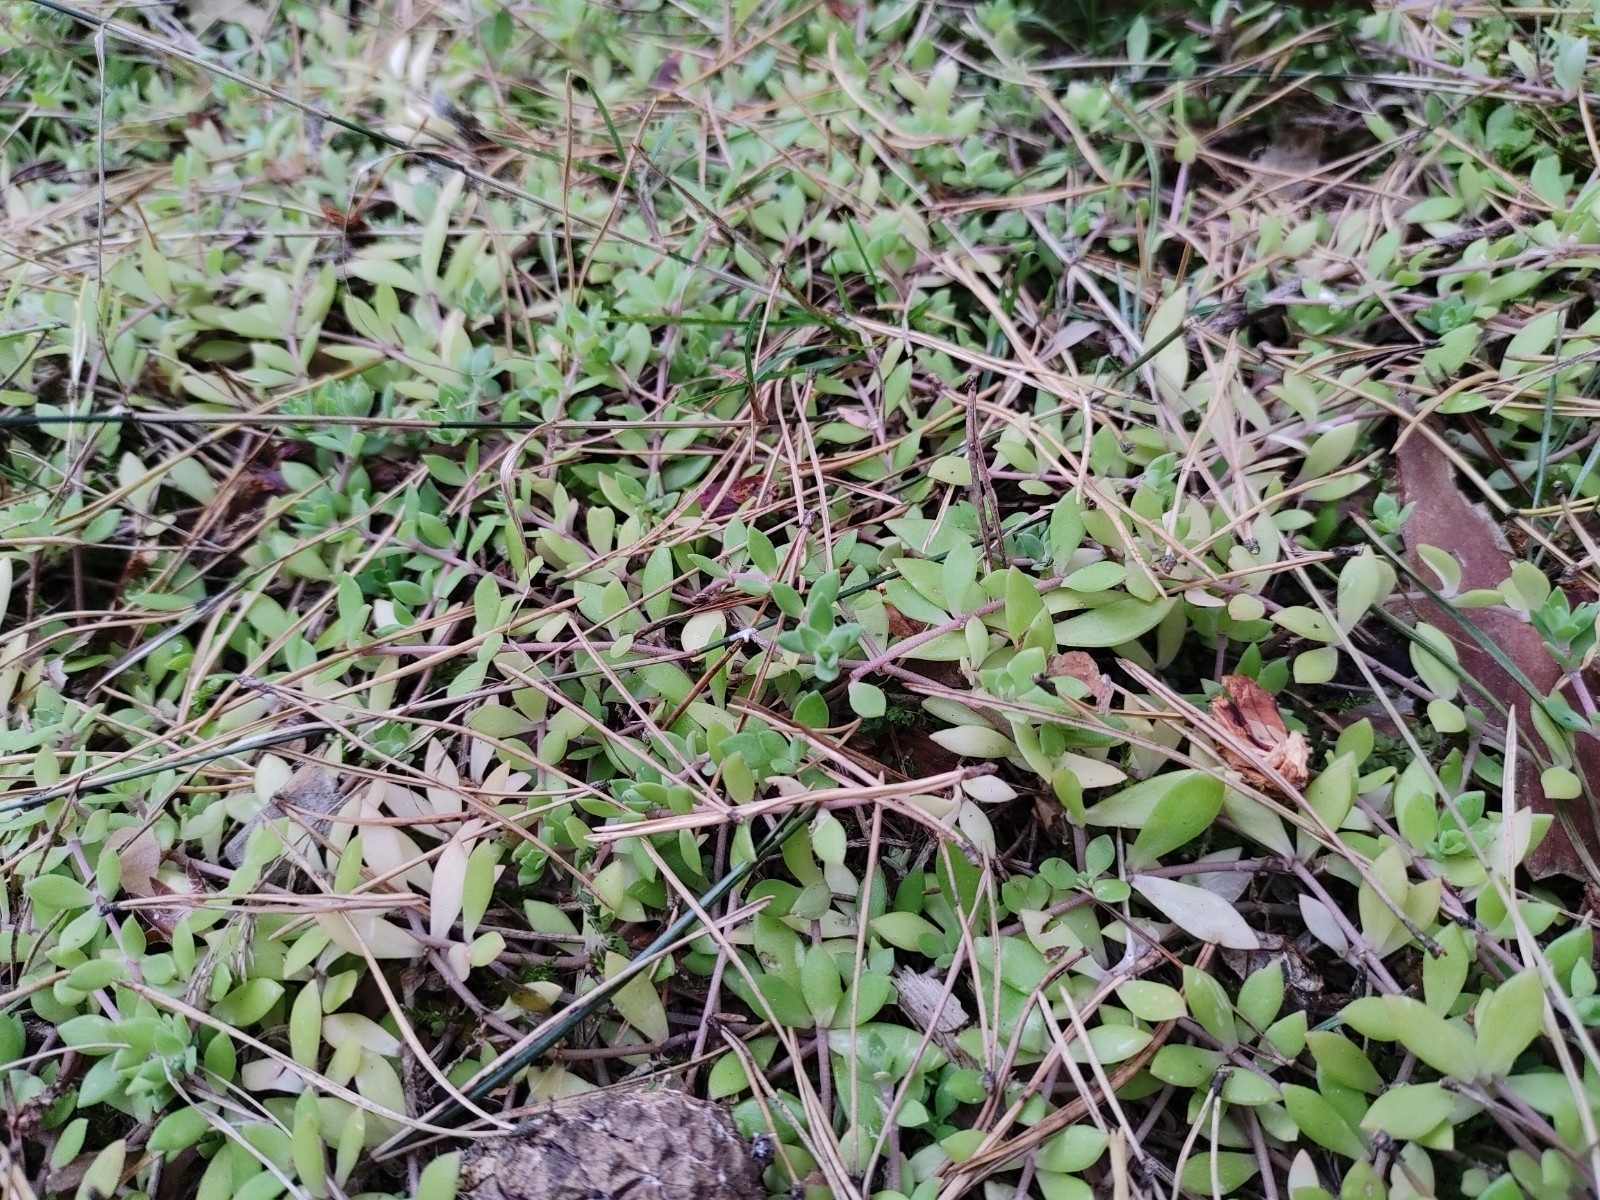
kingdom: Plantae
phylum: Tracheophyta
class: Magnoliopsida
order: Saxifragales
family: Crassulaceae
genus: Sedum
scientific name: Sedum sarmentosum
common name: Stringy stonecrop
